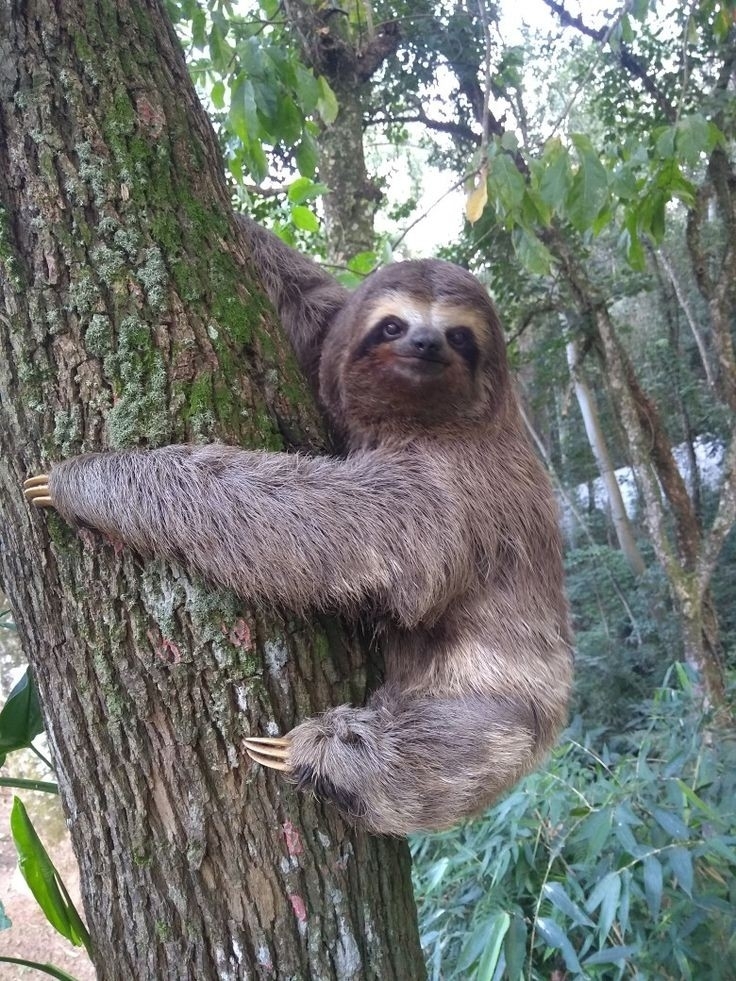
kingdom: Animalia
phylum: Chordata
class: Mammalia
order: Pilosa
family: Bradypodidae
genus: Bradypus
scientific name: Bradypus variegatus
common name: Brown-throated three-toed sloth
